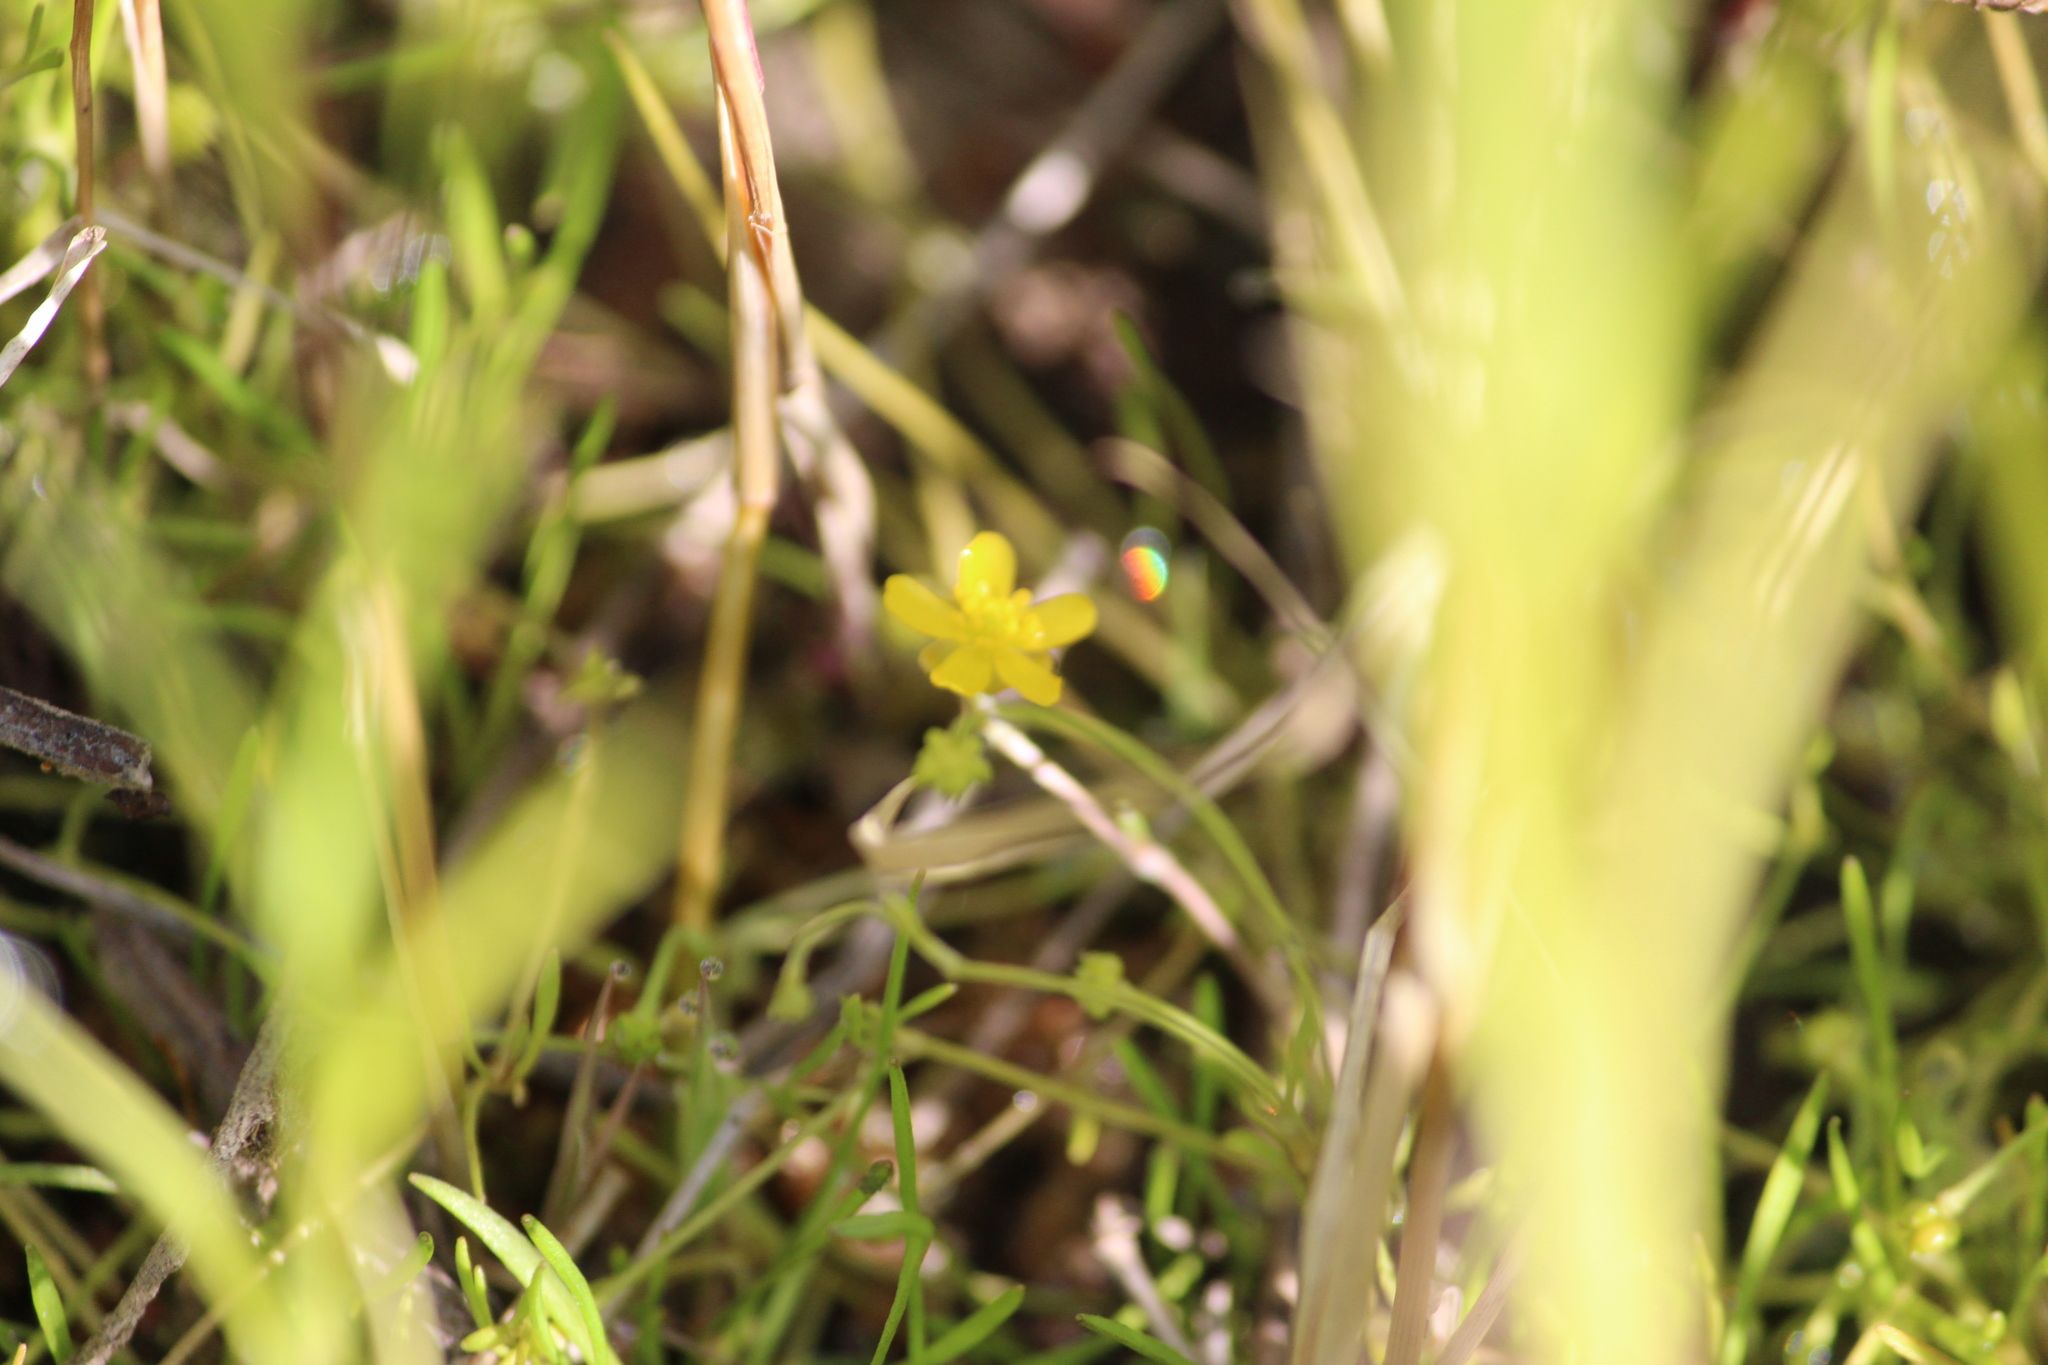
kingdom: Plantae
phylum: Tracheophyta
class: Magnoliopsida
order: Ranunculales
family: Ranunculaceae
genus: Ranunculus
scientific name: Ranunculus reptans
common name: Creeping spearwort
